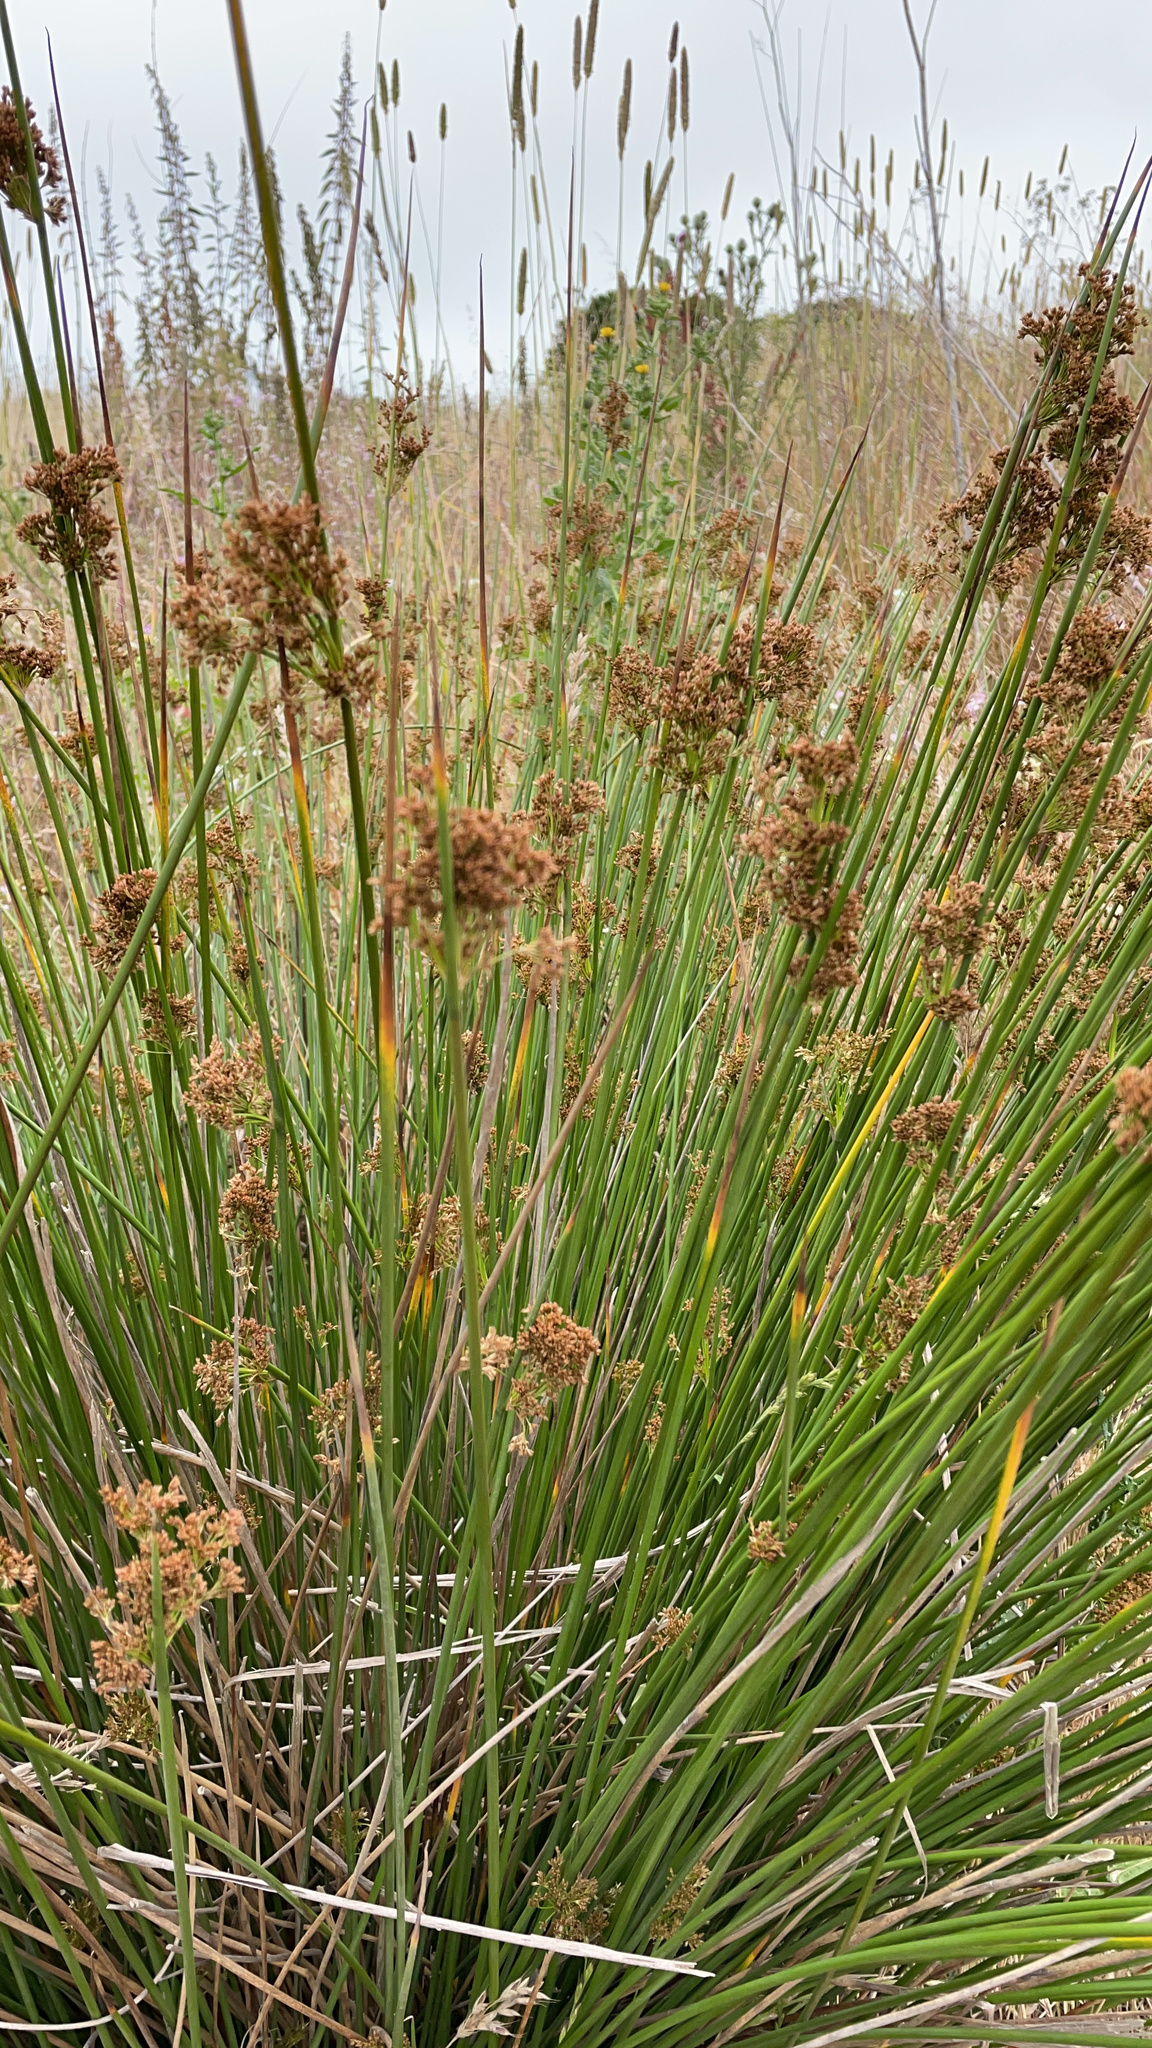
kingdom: Plantae
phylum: Tracheophyta
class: Liliopsida
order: Poales
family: Juncaceae
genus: Juncus
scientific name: Juncus patens
